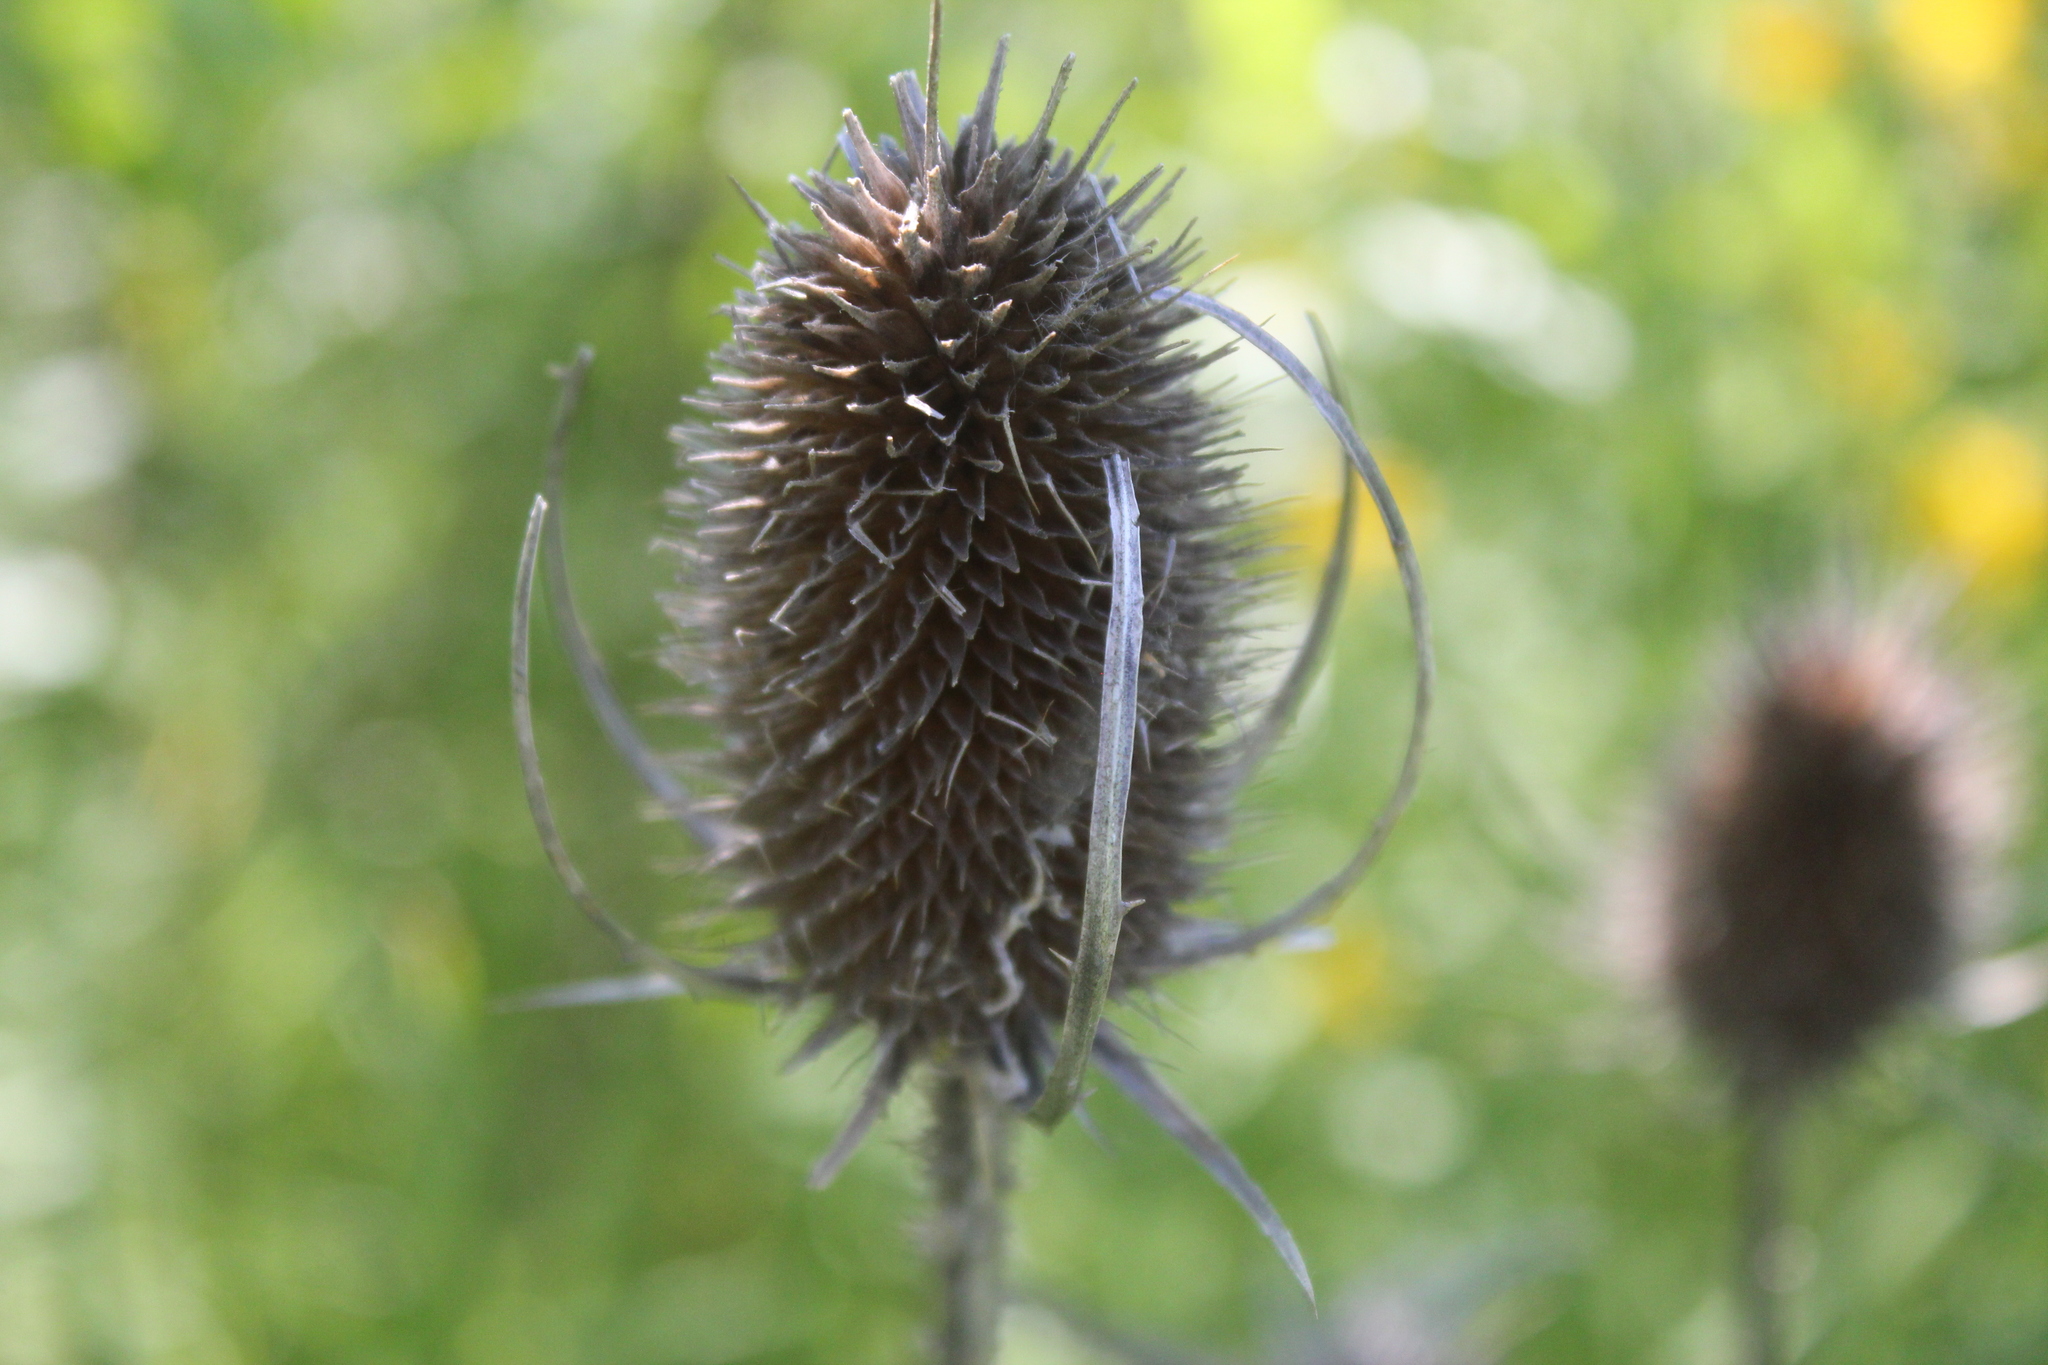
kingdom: Plantae
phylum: Tracheophyta
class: Magnoliopsida
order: Dipsacales
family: Caprifoliaceae
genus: Dipsacus
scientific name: Dipsacus fullonum
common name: Teasel
